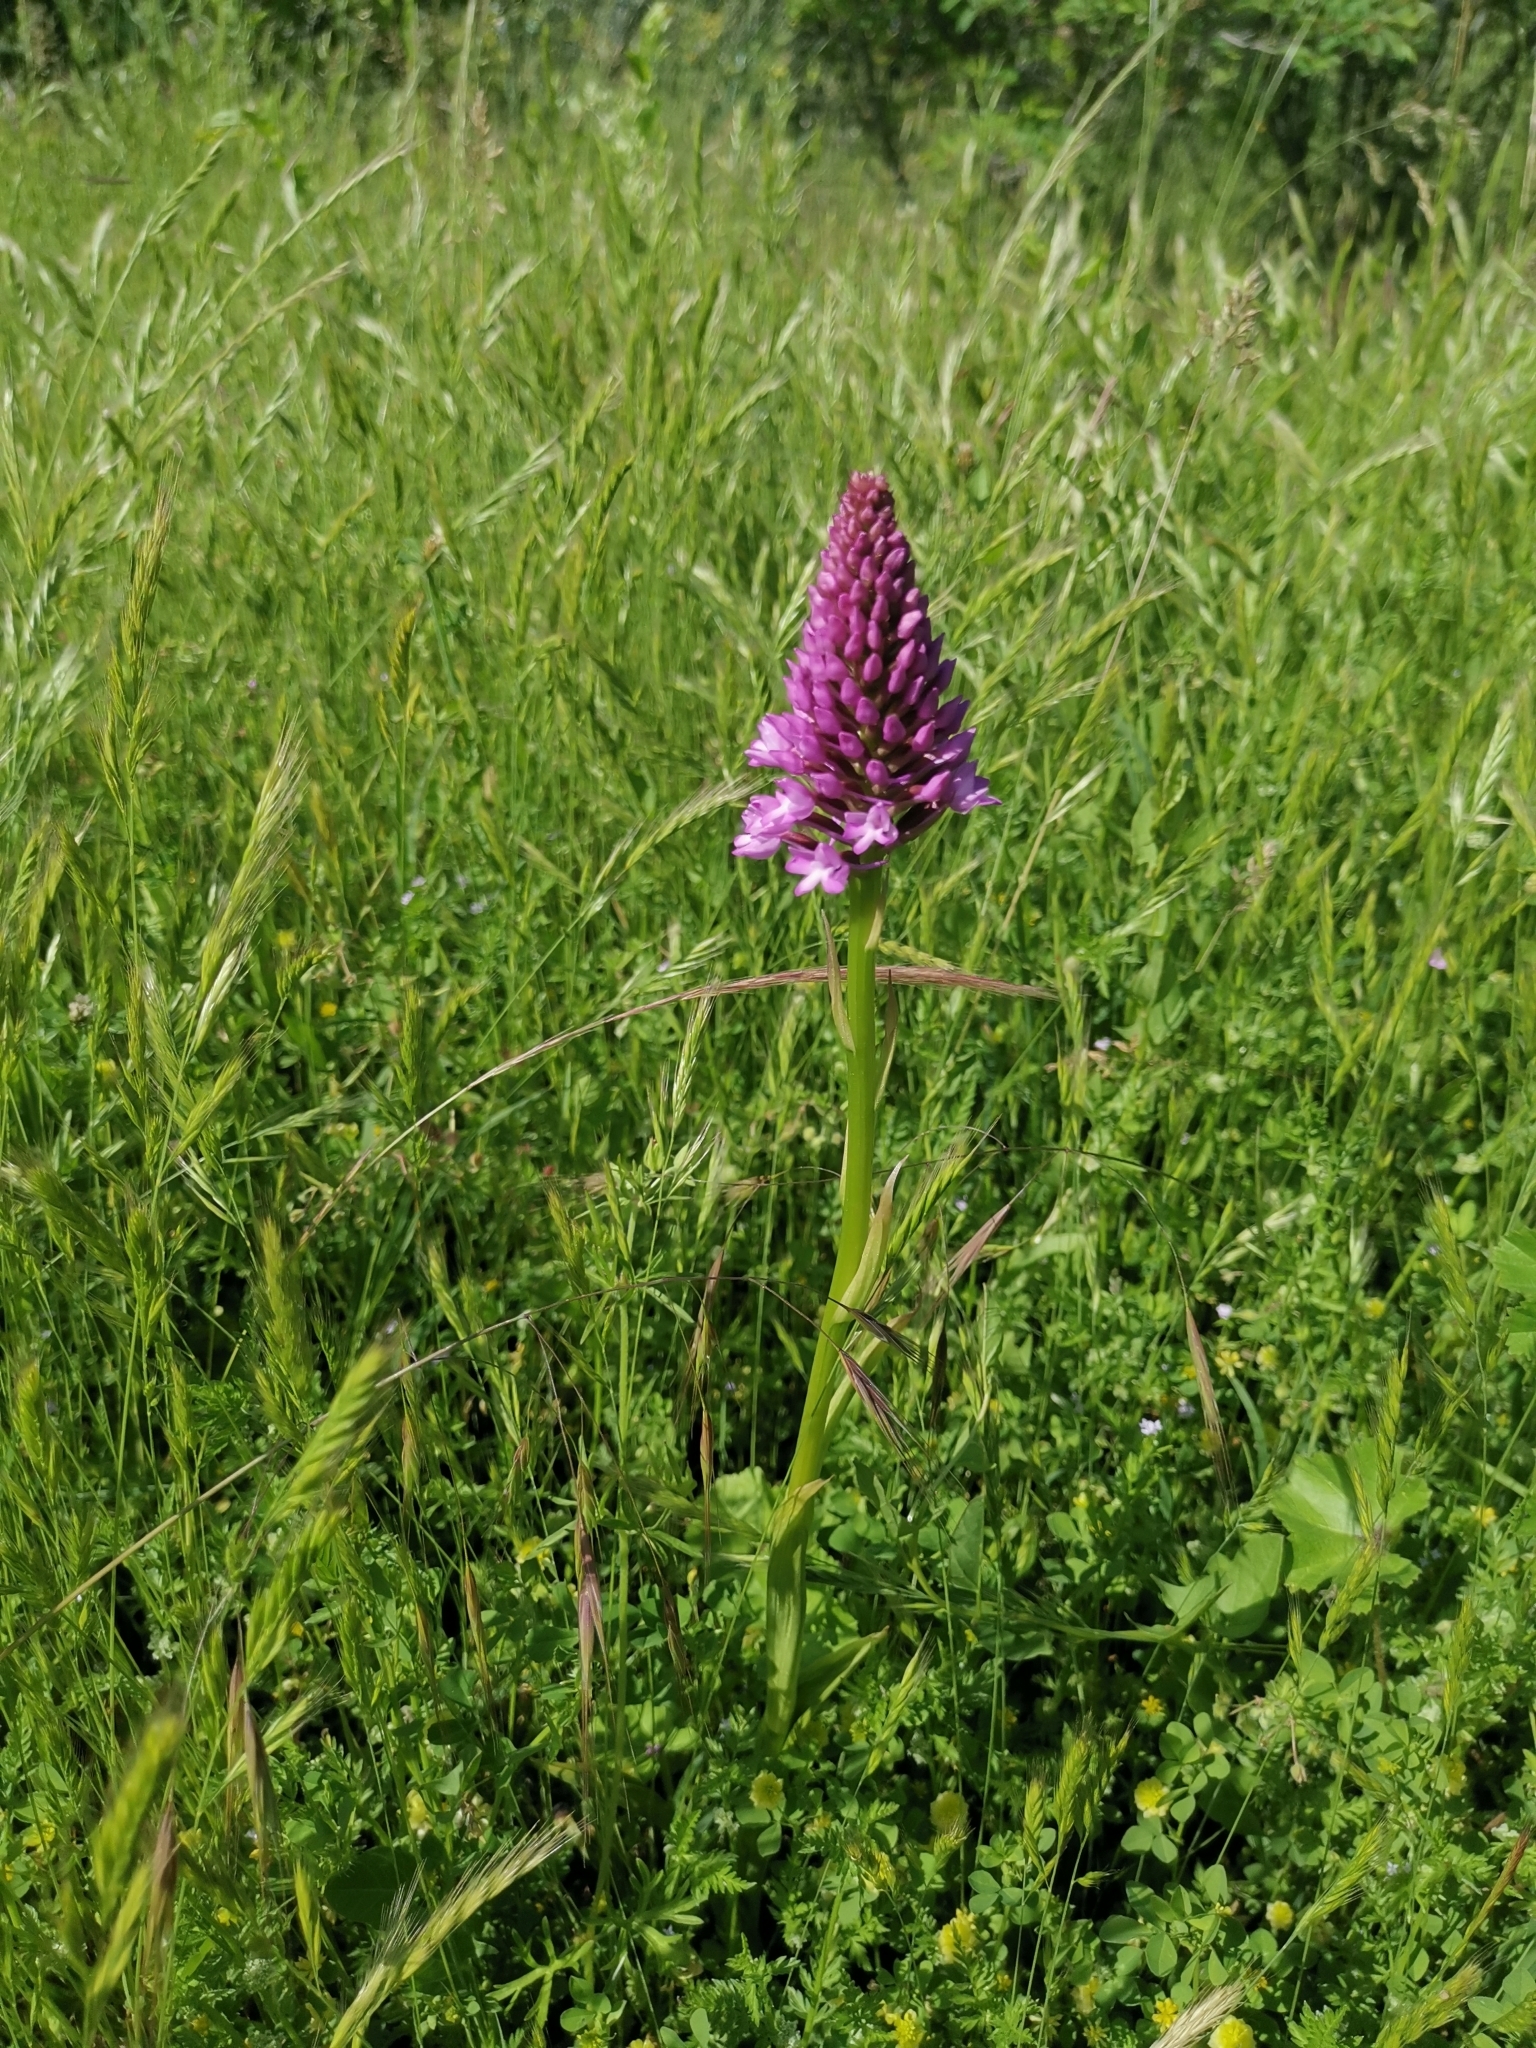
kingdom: Plantae
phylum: Tracheophyta
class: Liliopsida
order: Asparagales
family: Orchidaceae
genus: Anacamptis
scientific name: Anacamptis pyramidalis
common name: Pyramidal orchid
